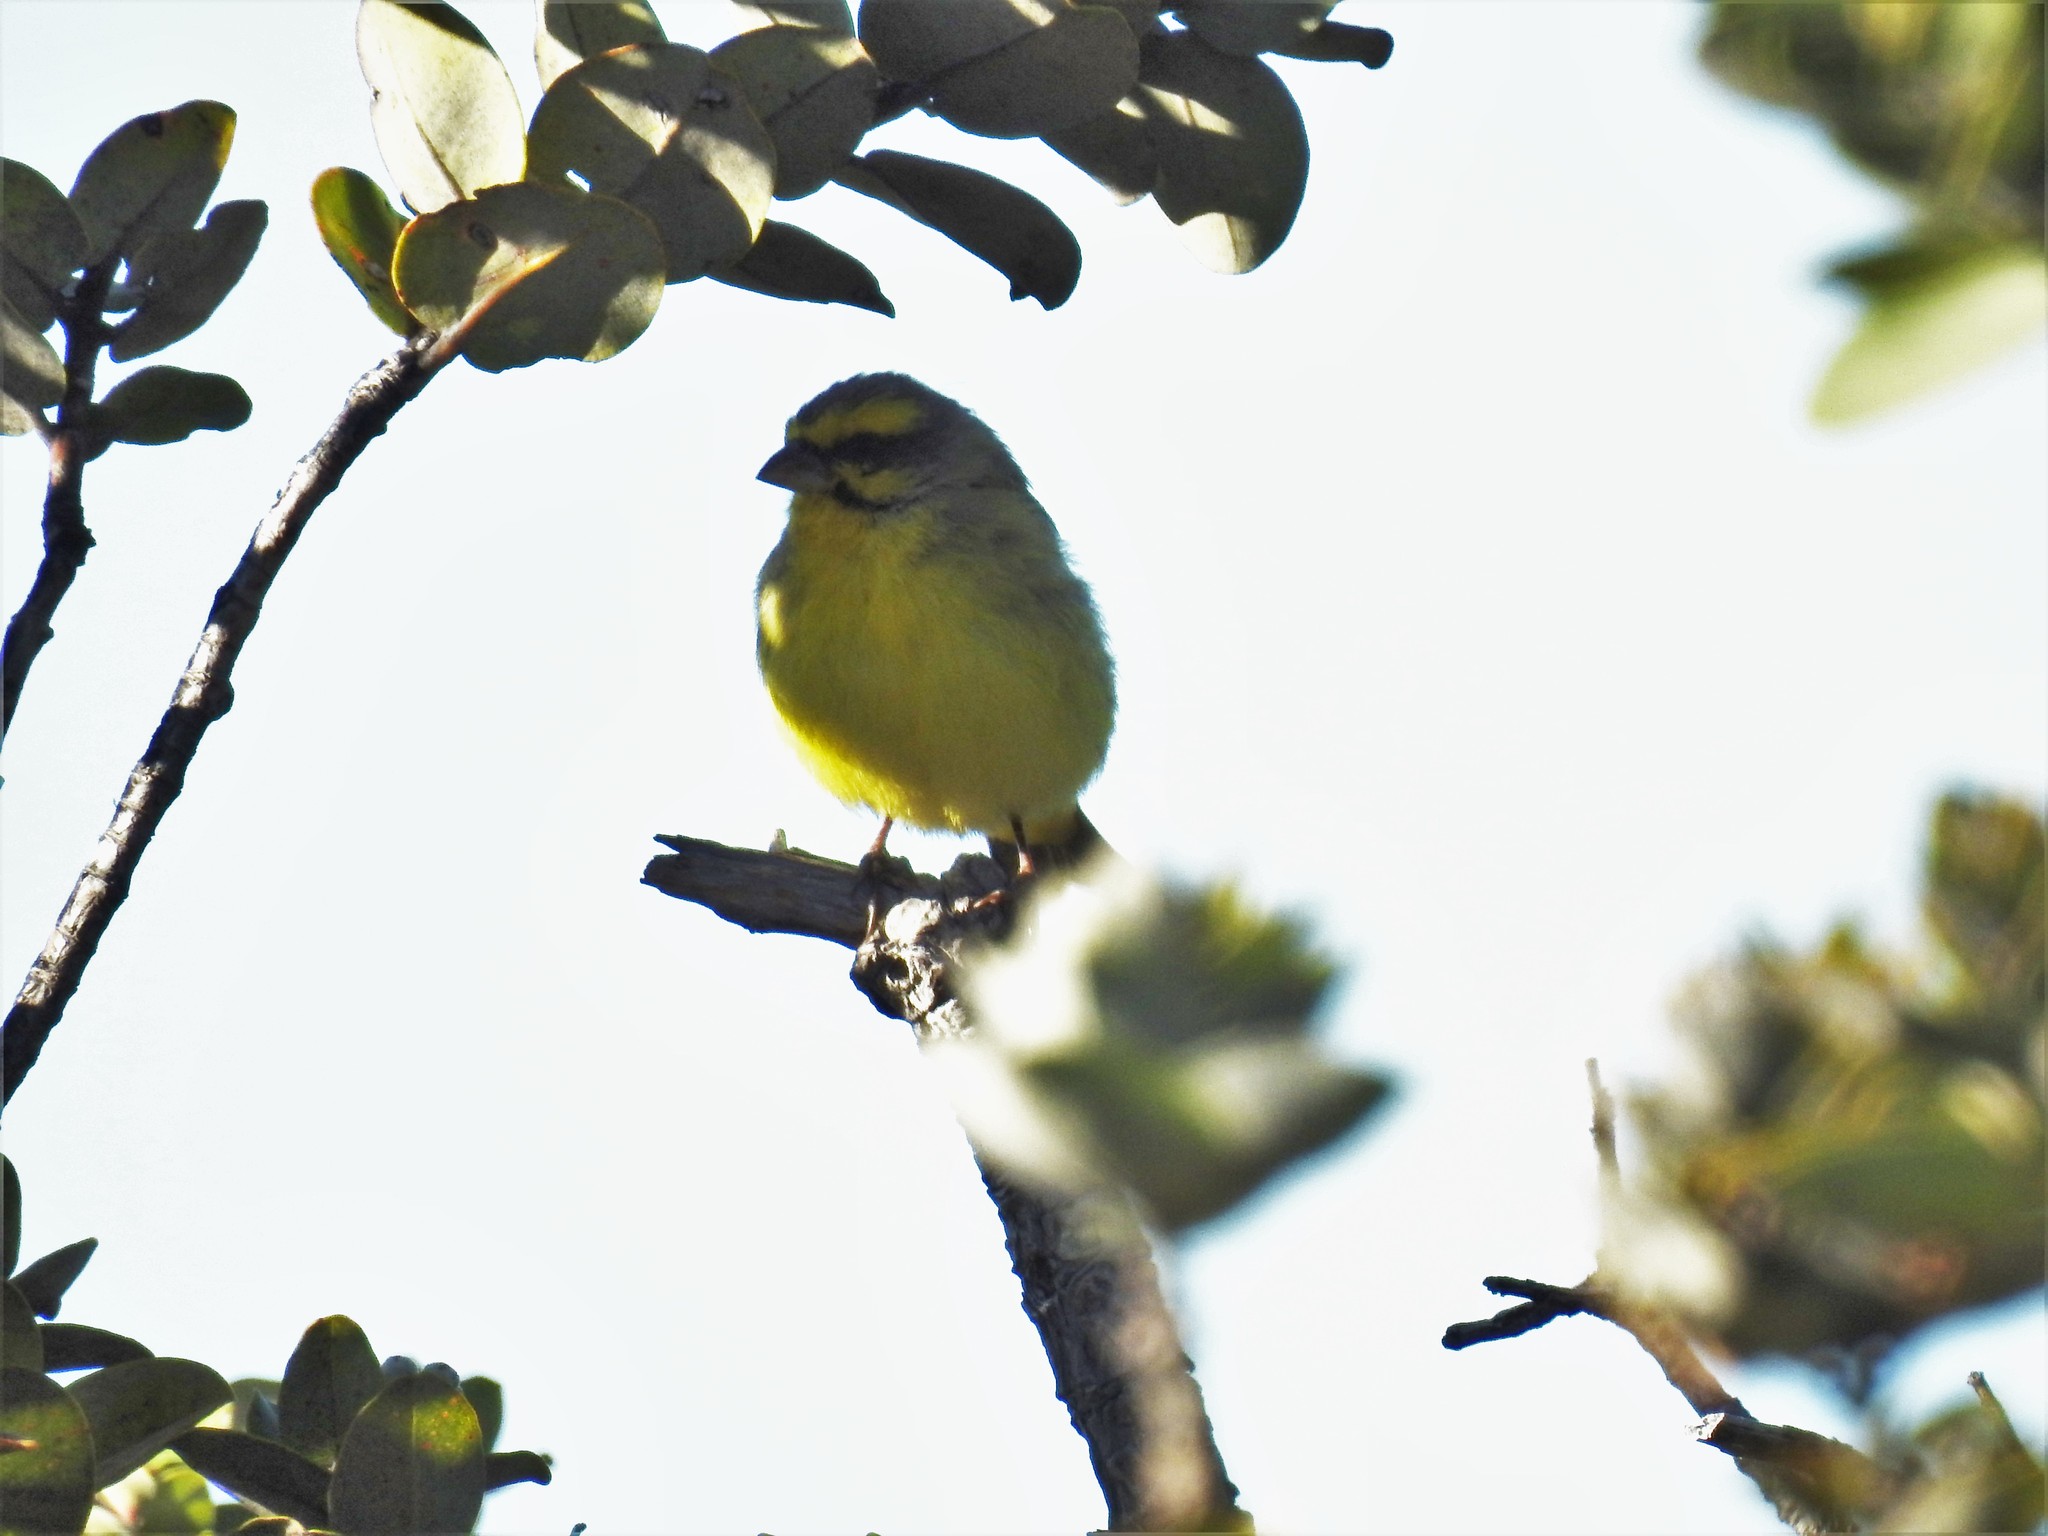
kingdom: Animalia
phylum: Chordata
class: Aves
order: Passeriformes
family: Fringillidae
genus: Crithagra
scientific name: Crithagra mozambica
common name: Yellow-fronted canary
